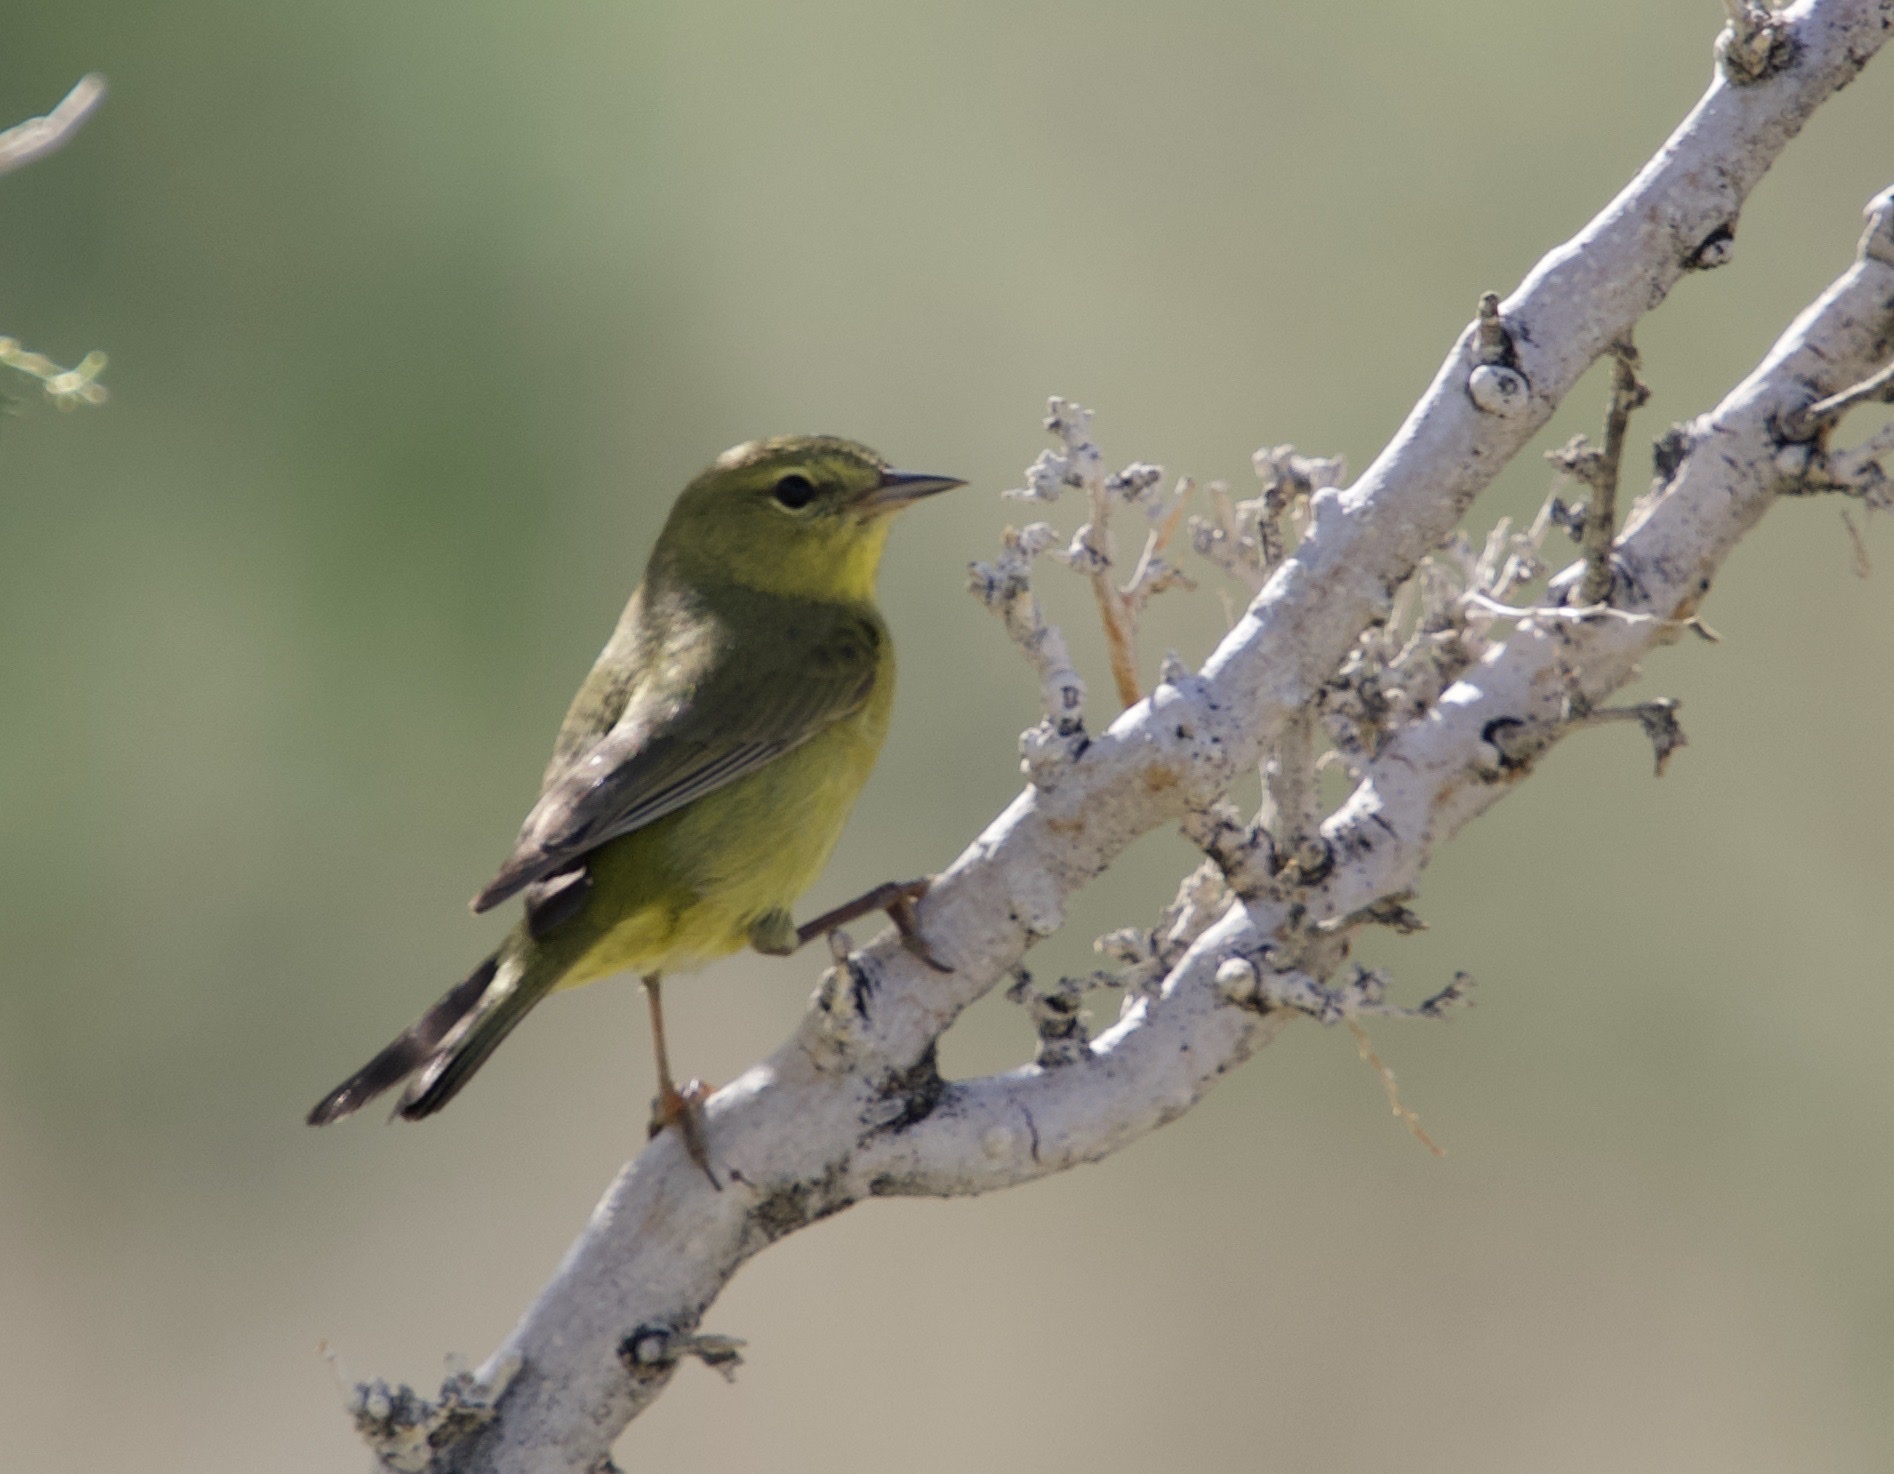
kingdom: Animalia
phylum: Chordata
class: Aves
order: Passeriformes
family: Parulidae
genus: Leiothlypis
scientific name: Leiothlypis celata
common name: Orange-crowned warbler
